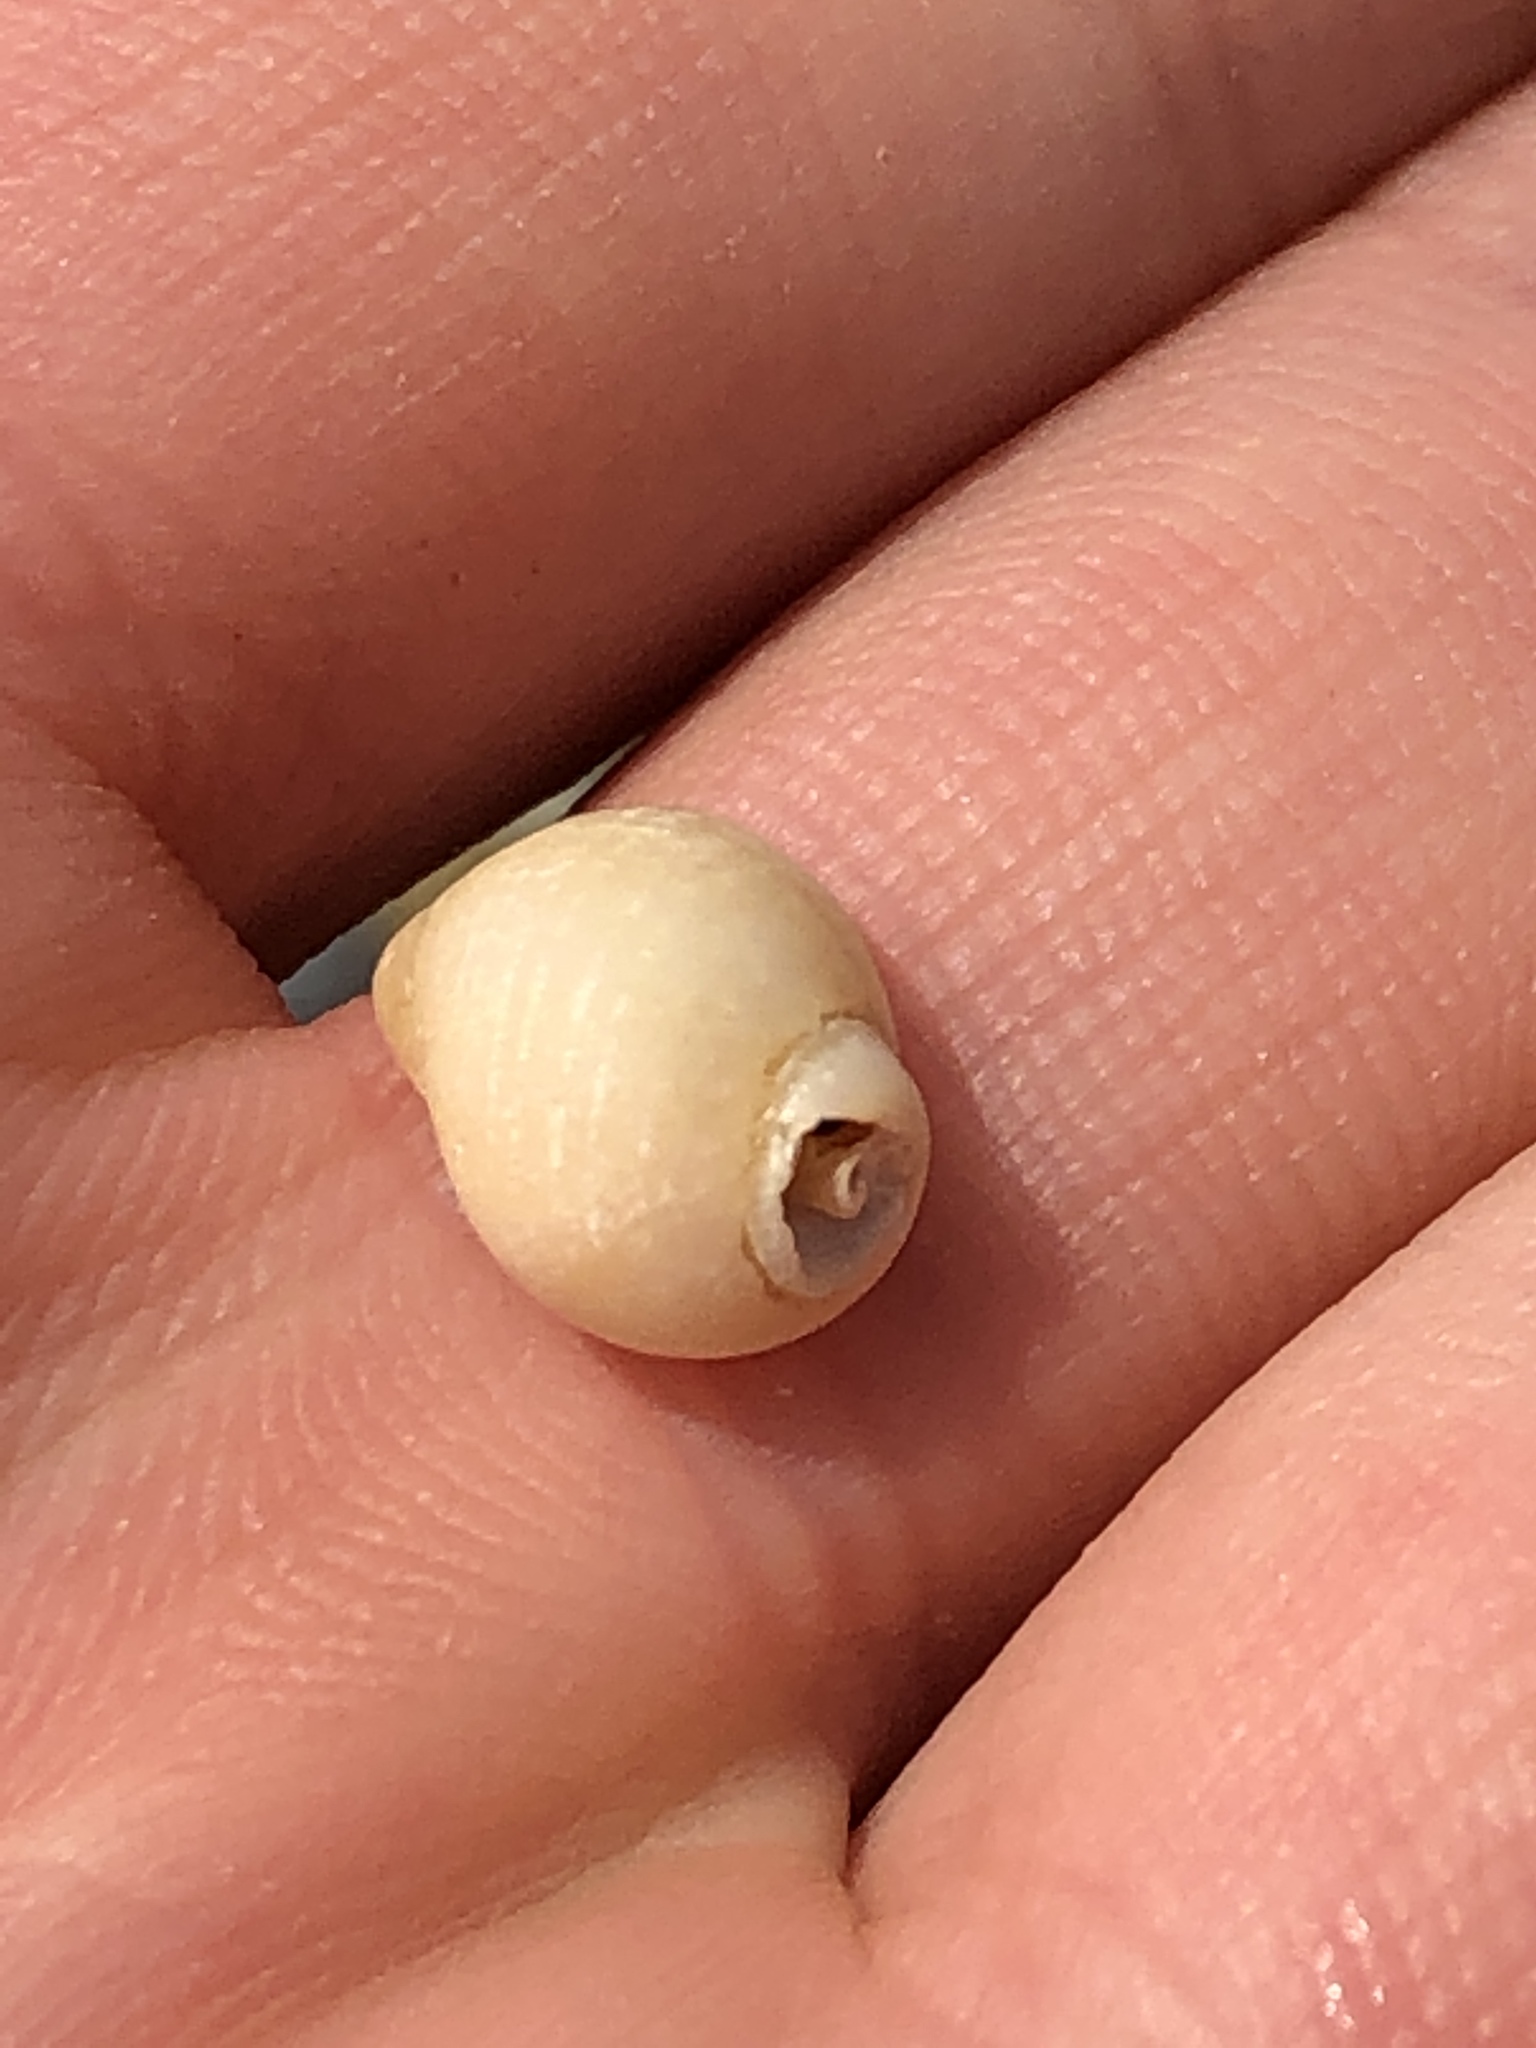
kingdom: Animalia
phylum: Mollusca
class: Gastropoda
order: Neogastropoda
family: Muricidae
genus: Nucella
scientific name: Nucella lapillus
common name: Dog whelk
